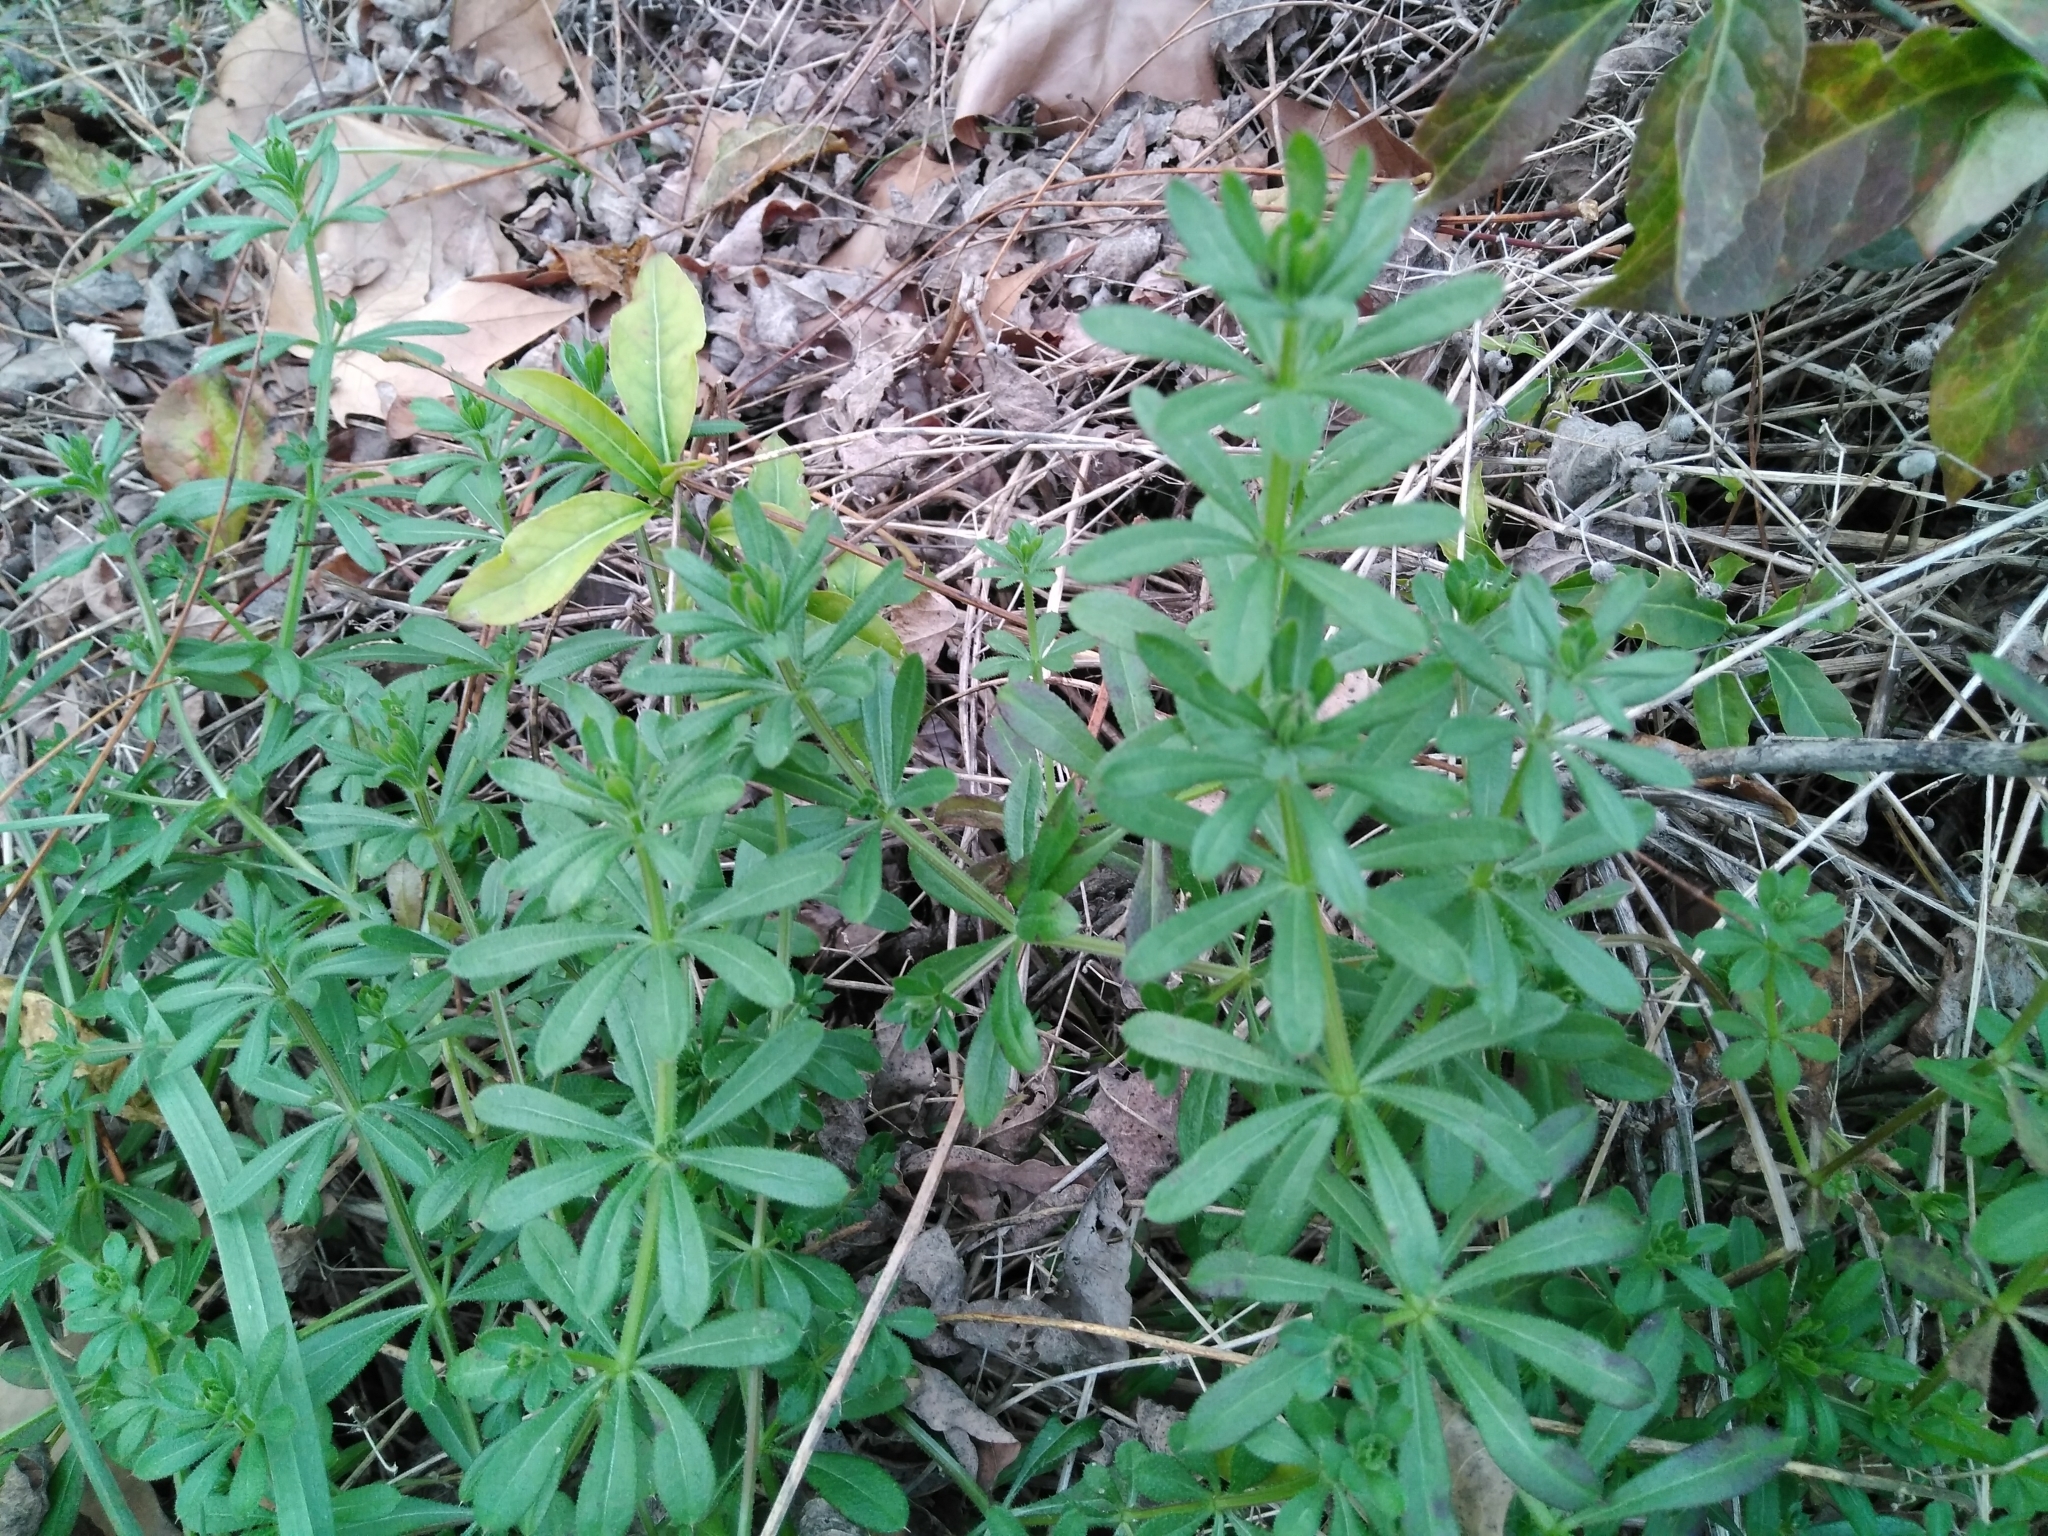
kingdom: Plantae
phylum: Tracheophyta
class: Magnoliopsida
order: Gentianales
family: Rubiaceae
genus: Galium
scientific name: Galium aparine
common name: Cleavers
